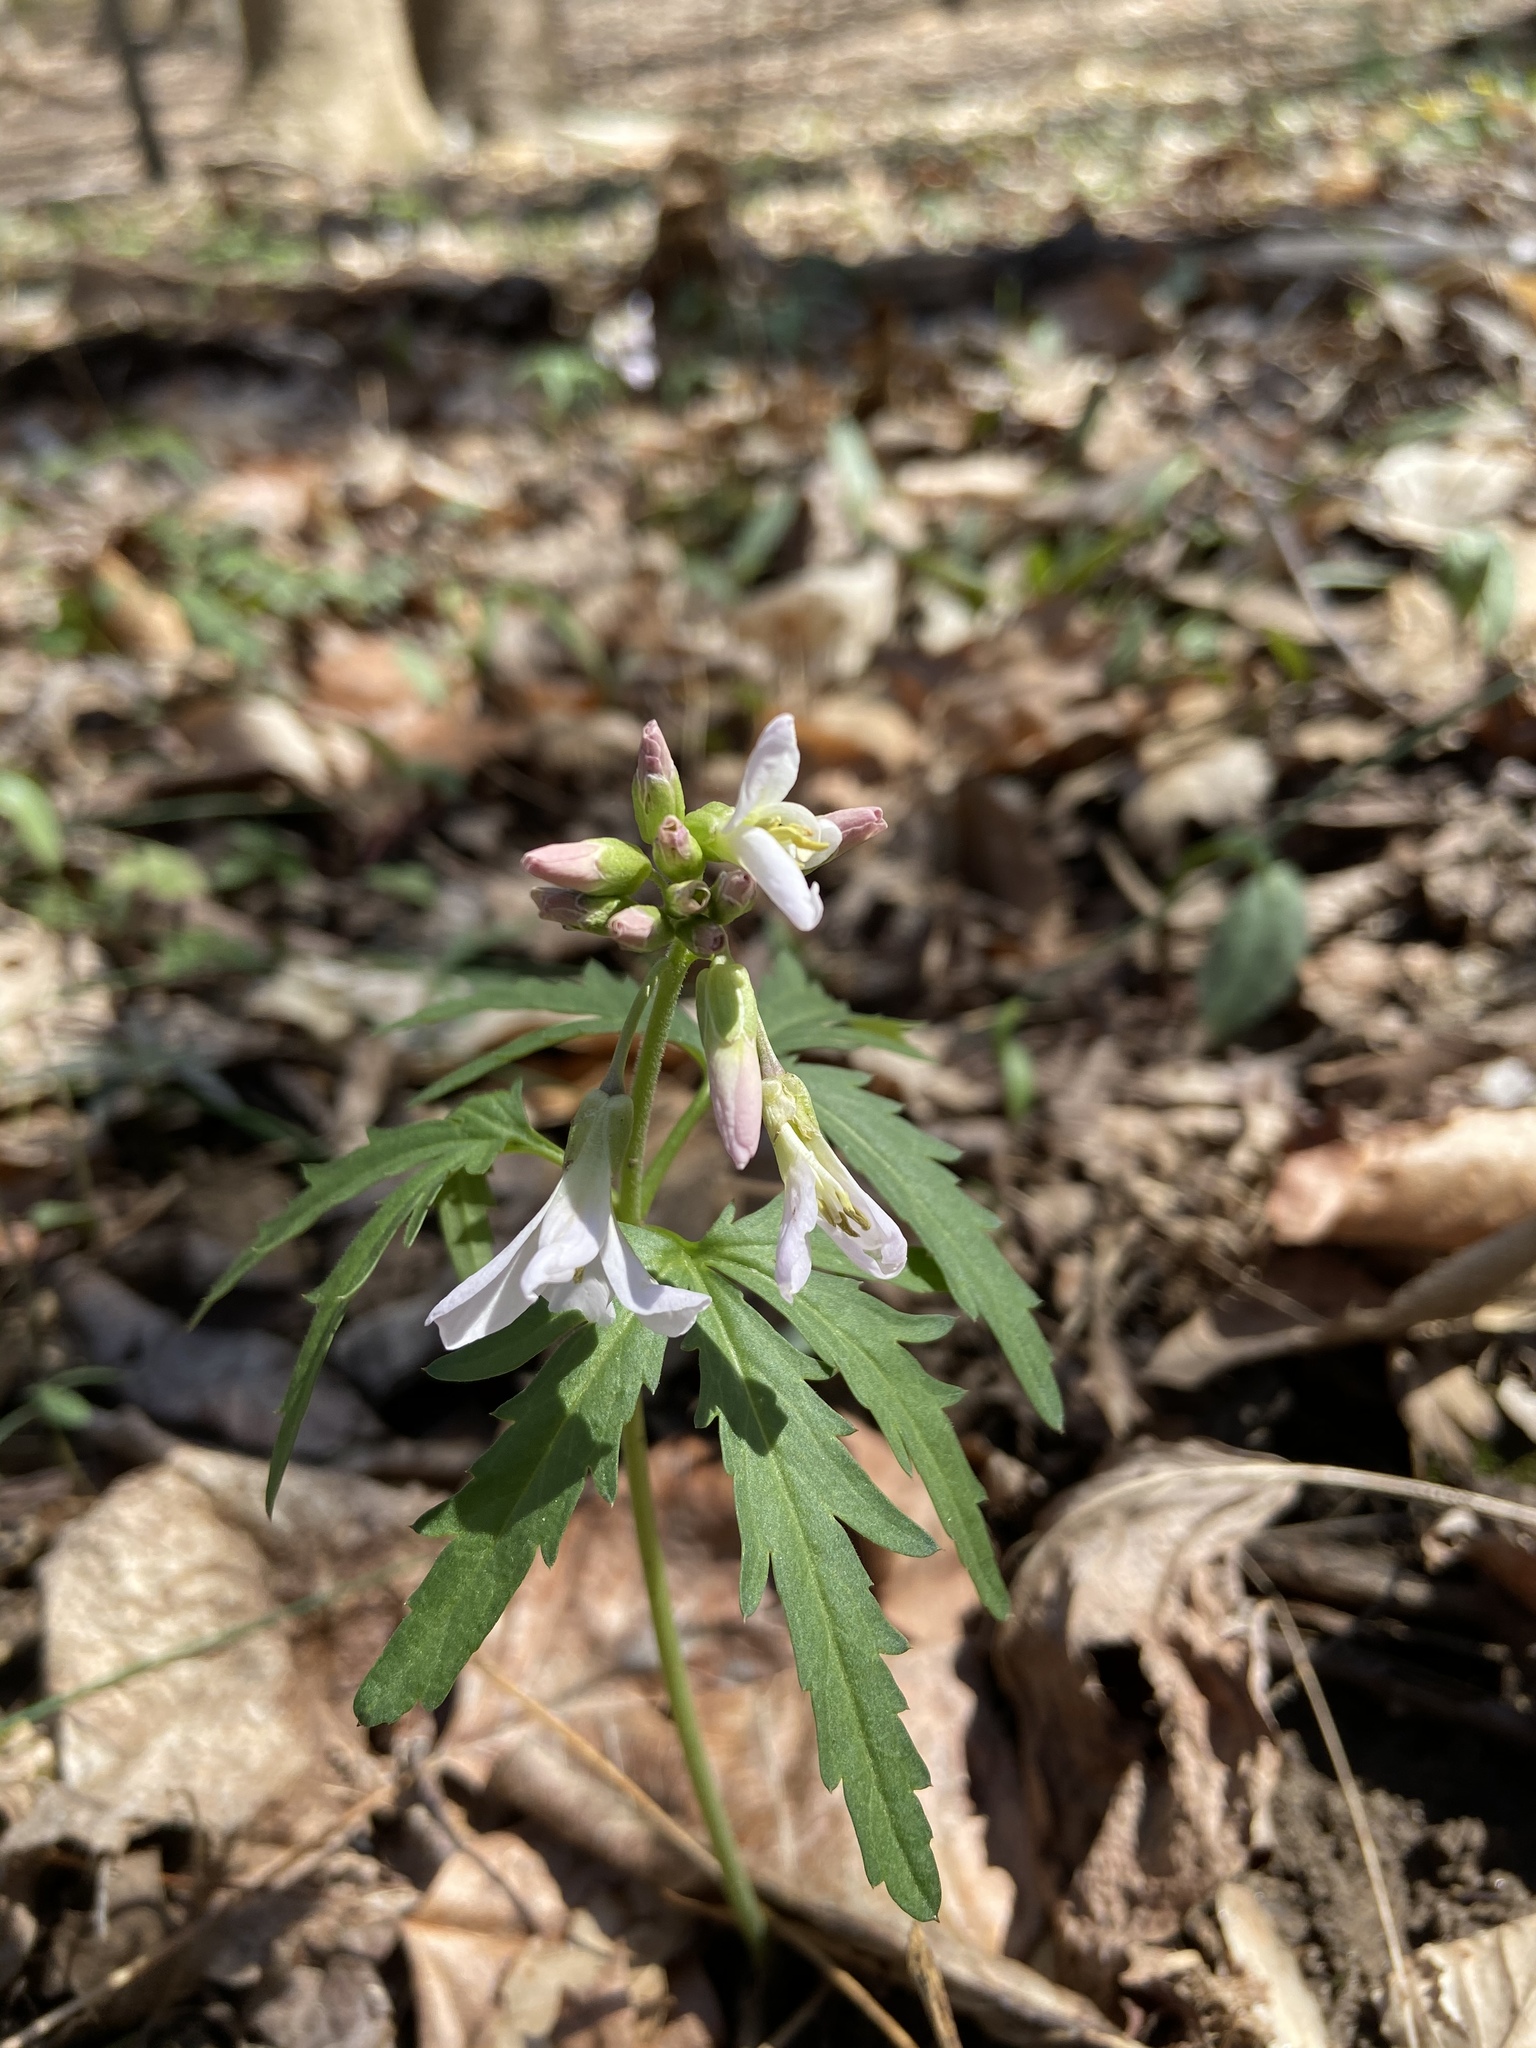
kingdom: Plantae
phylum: Tracheophyta
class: Magnoliopsida
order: Brassicales
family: Brassicaceae
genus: Cardamine
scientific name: Cardamine concatenata
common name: Cut-leaf toothcup
